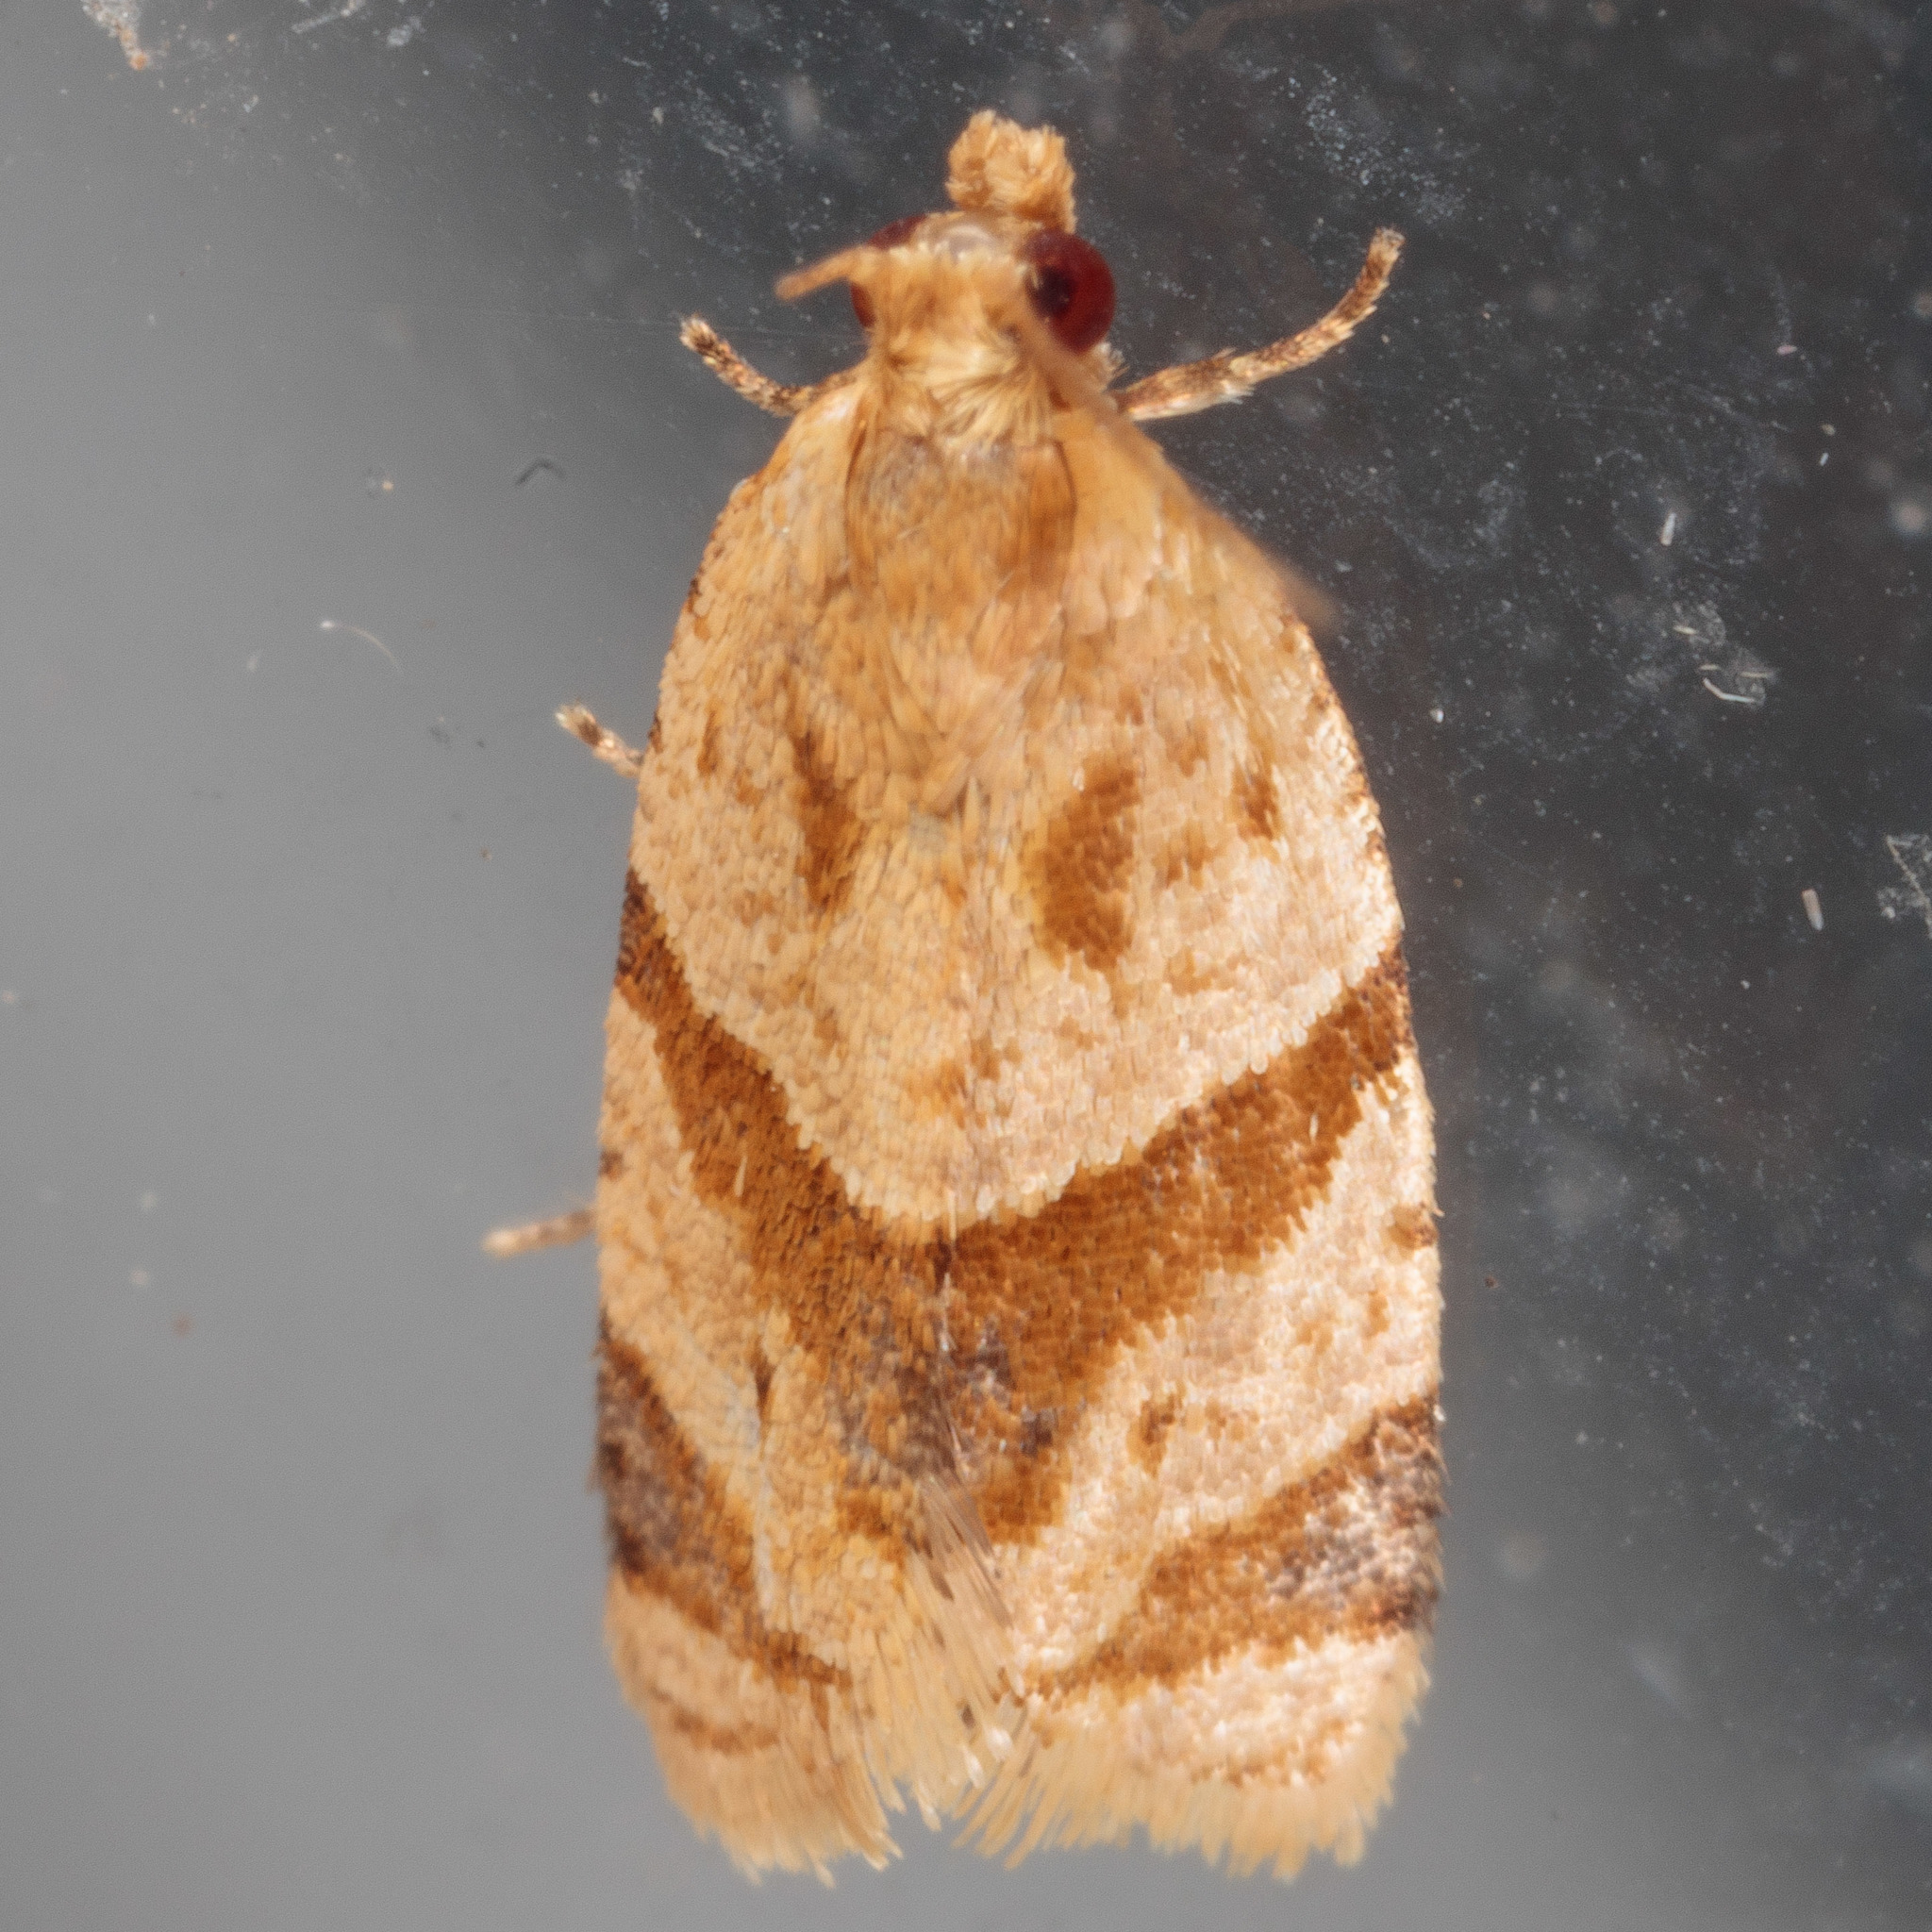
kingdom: Animalia
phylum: Arthropoda
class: Insecta
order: Lepidoptera
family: Tortricidae
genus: Clepsis
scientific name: Clepsis peritana
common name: Garden tortrix
